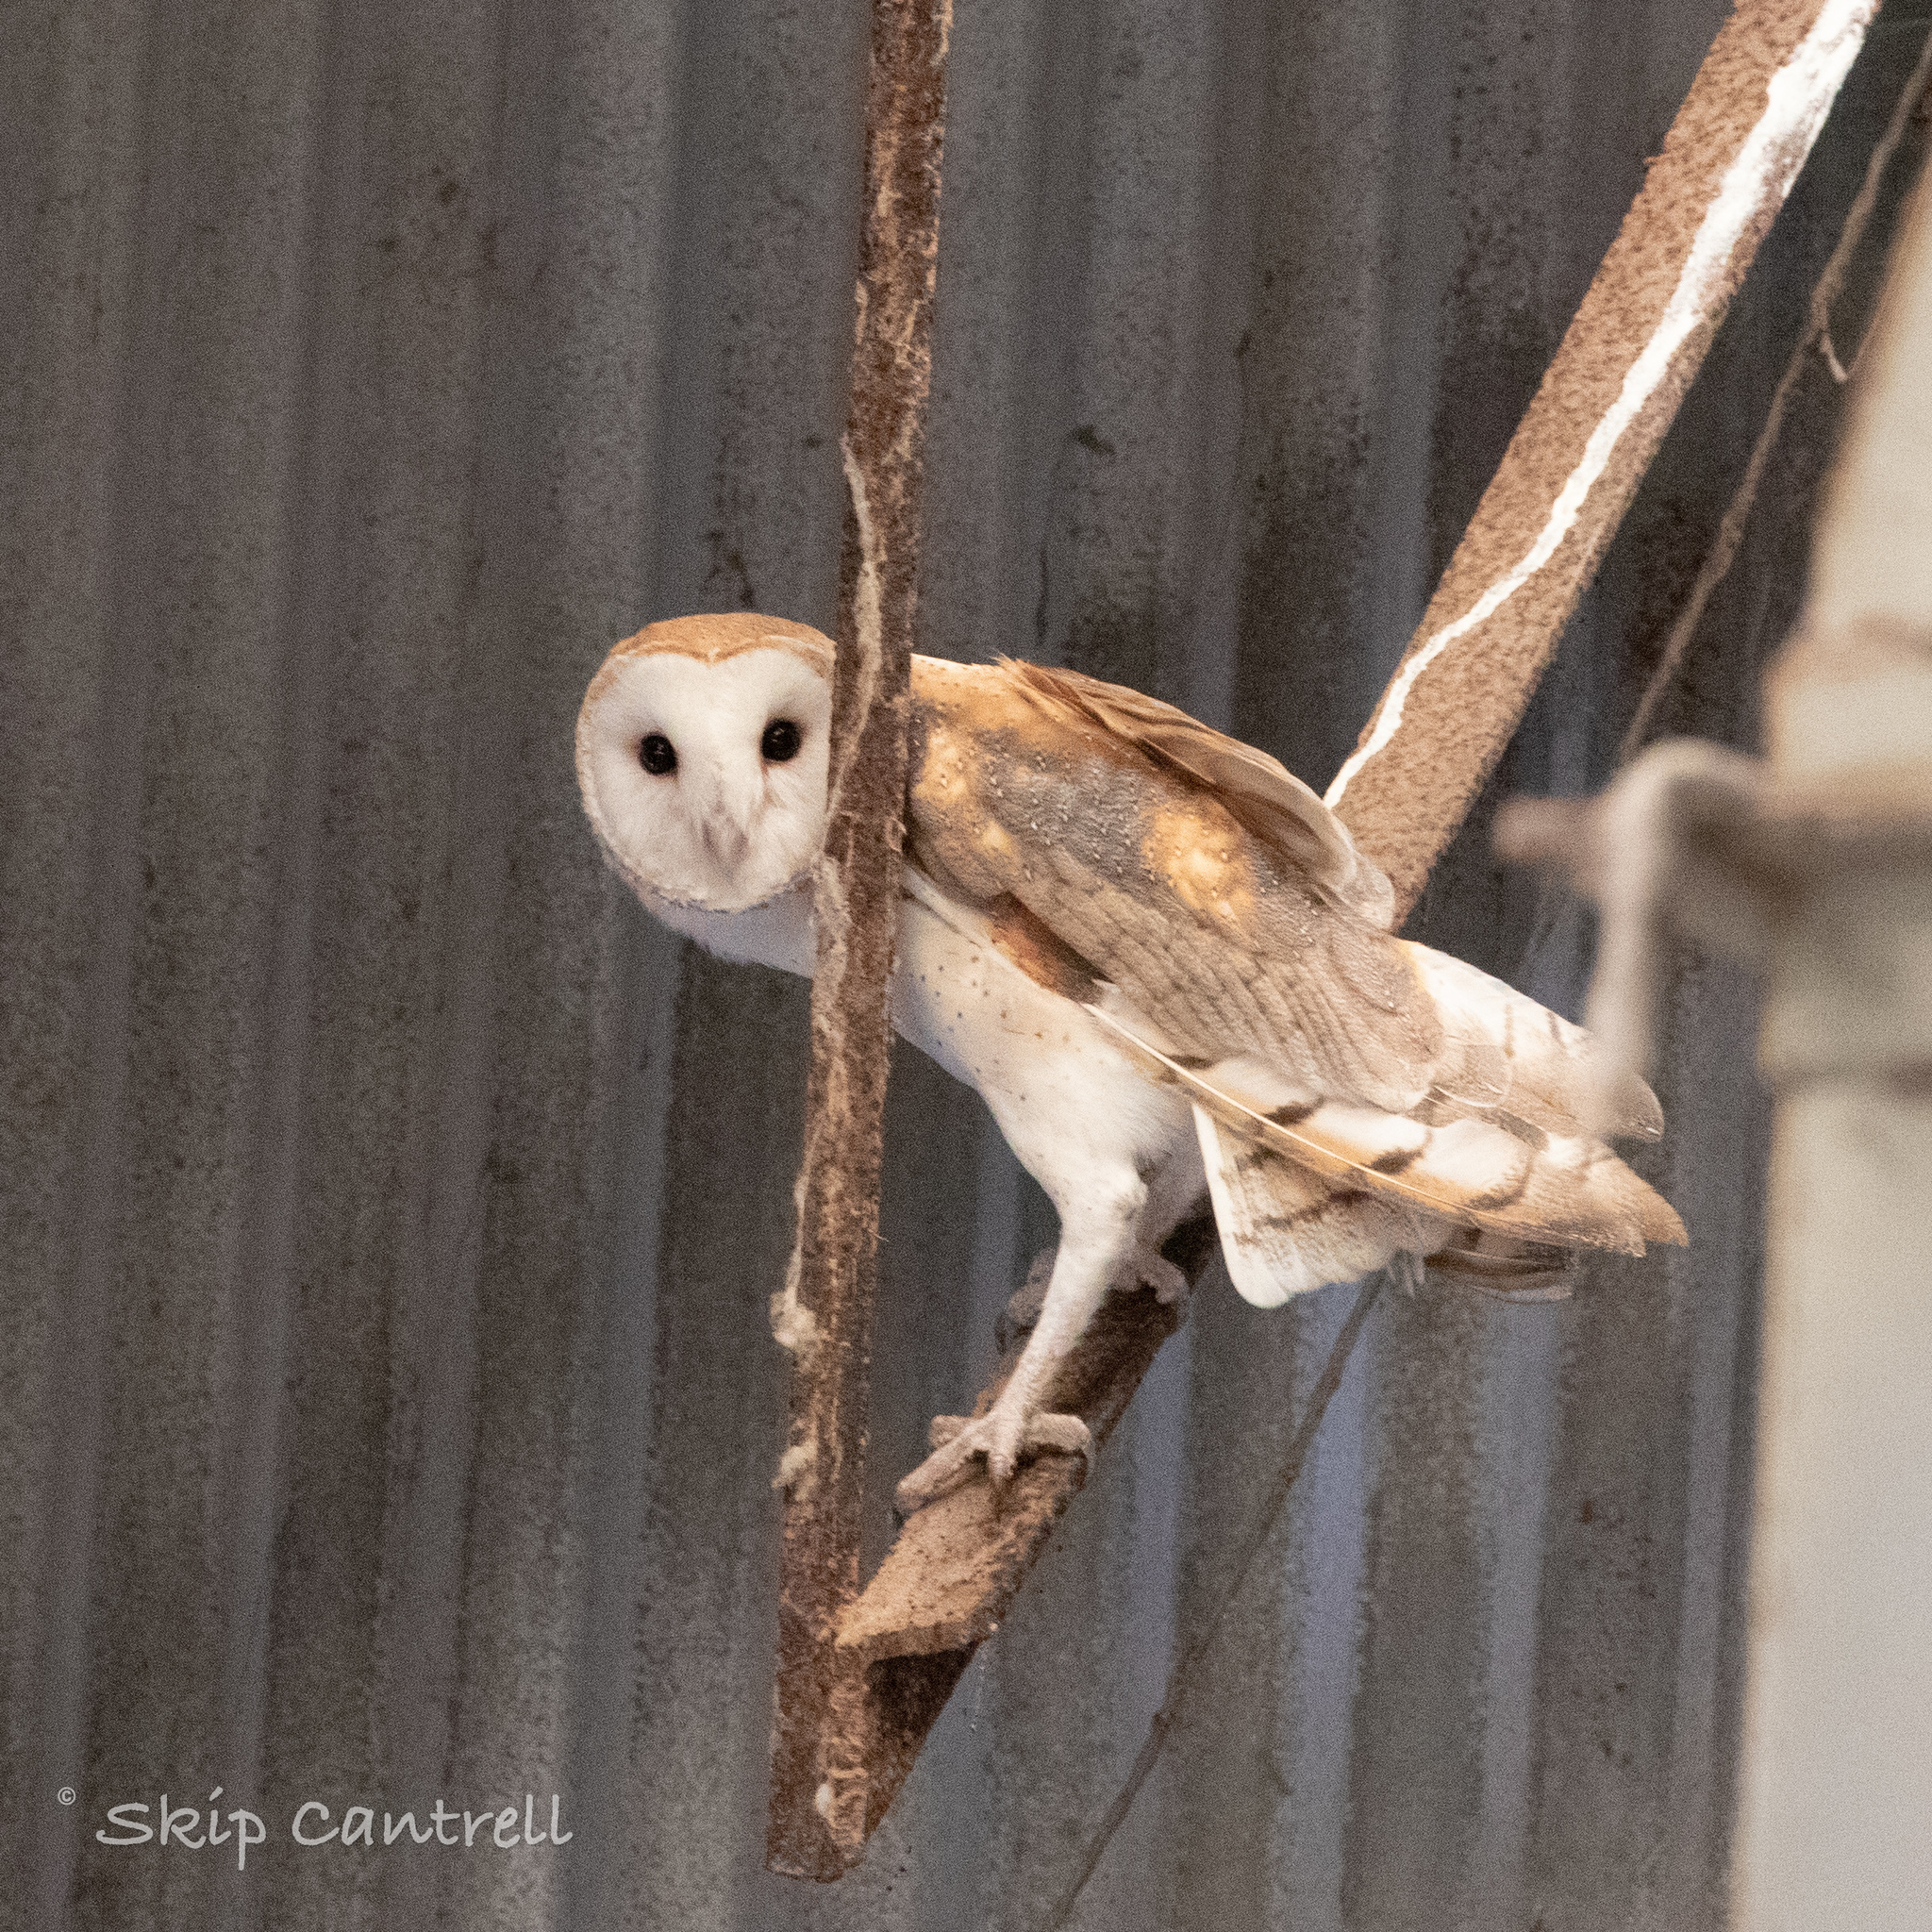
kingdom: Animalia
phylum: Chordata
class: Aves
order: Strigiformes
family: Tytonidae
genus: Tyto
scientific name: Tyto alba
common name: Barn owl
